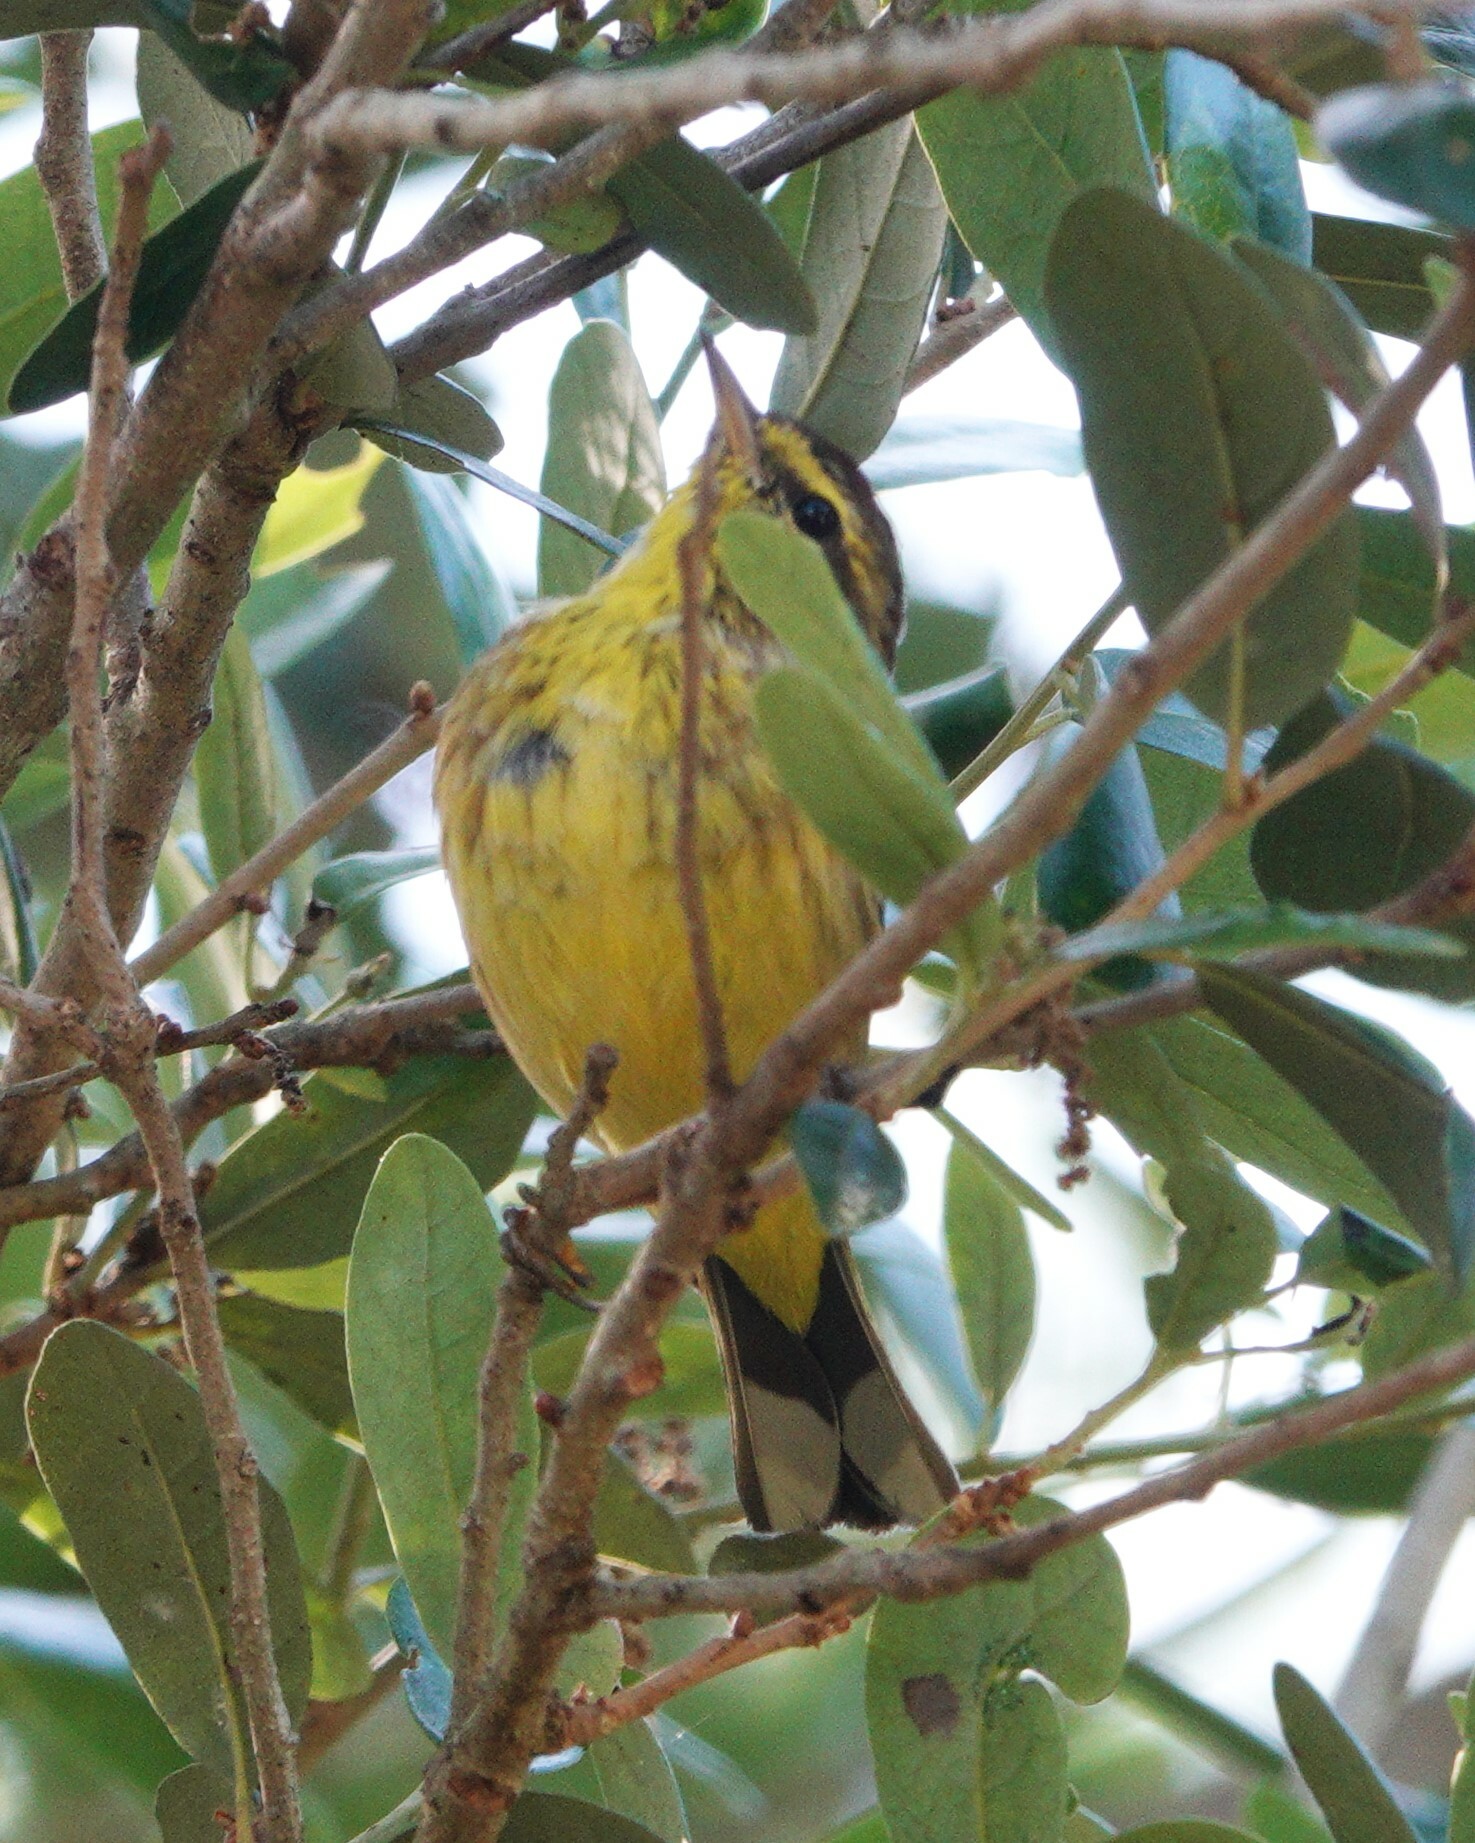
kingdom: Animalia
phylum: Chordata
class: Aves
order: Passeriformes
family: Parulidae
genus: Setophaga
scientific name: Setophaga palmarum
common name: Palm warbler
